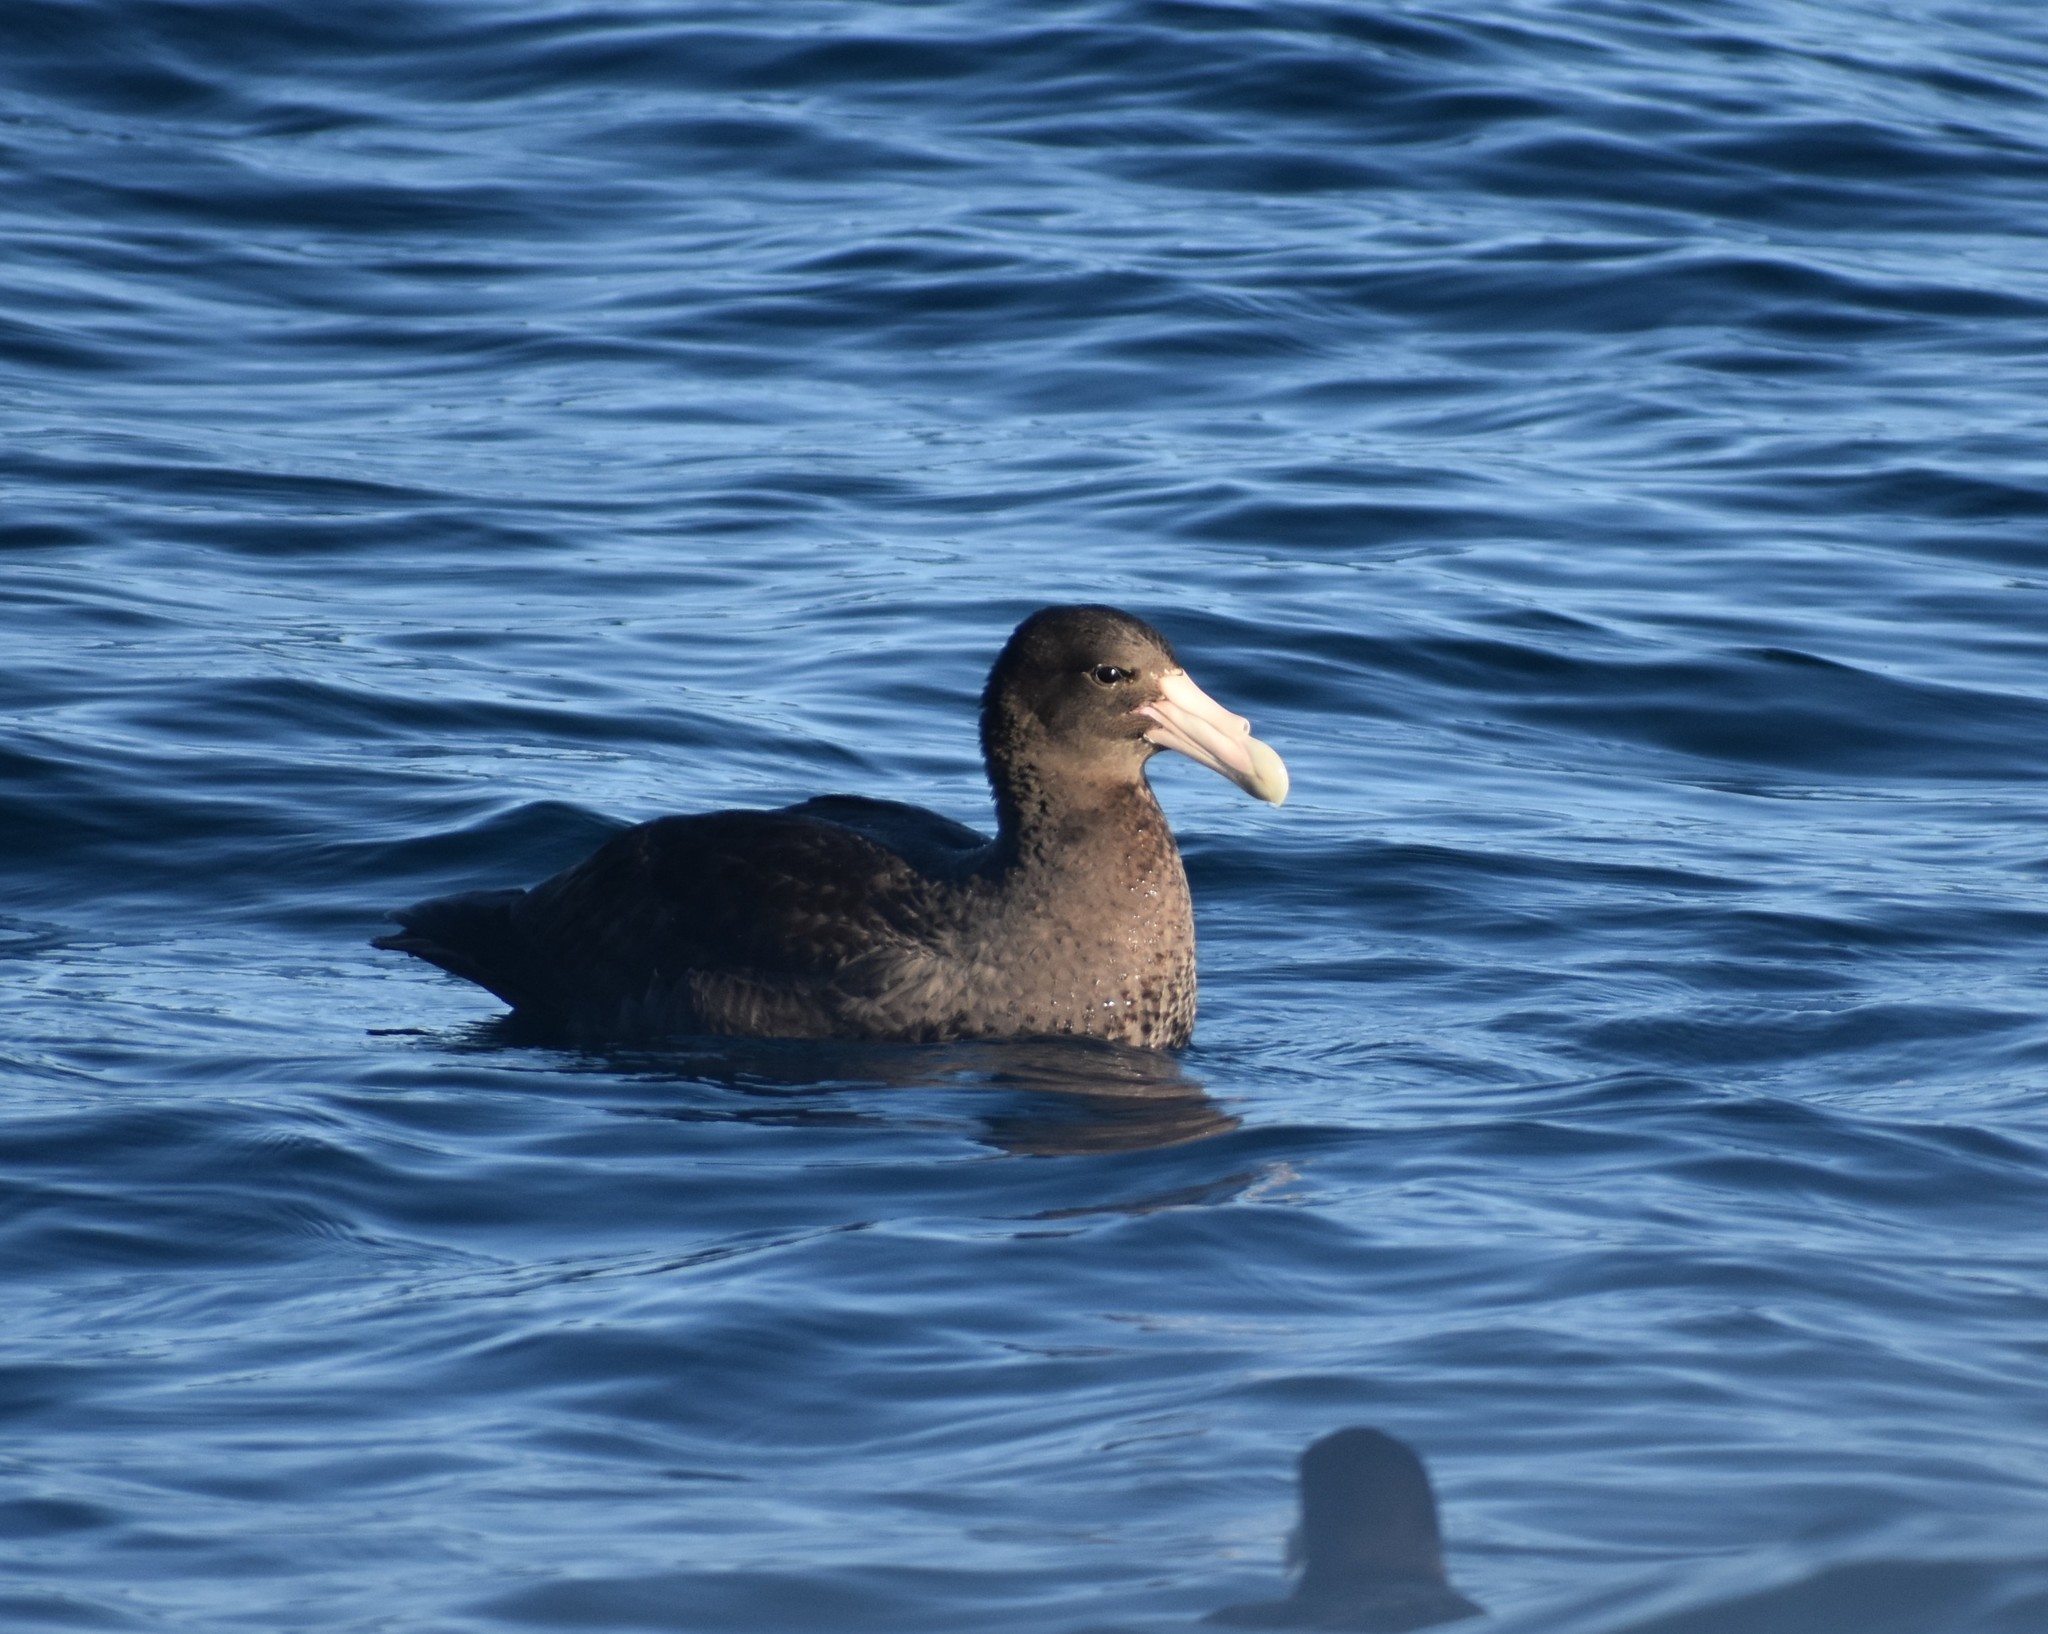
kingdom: Animalia
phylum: Chordata
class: Aves
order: Procellariiformes
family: Procellariidae
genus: Macronectes
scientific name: Macronectes giganteus
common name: Southern giant petrel
